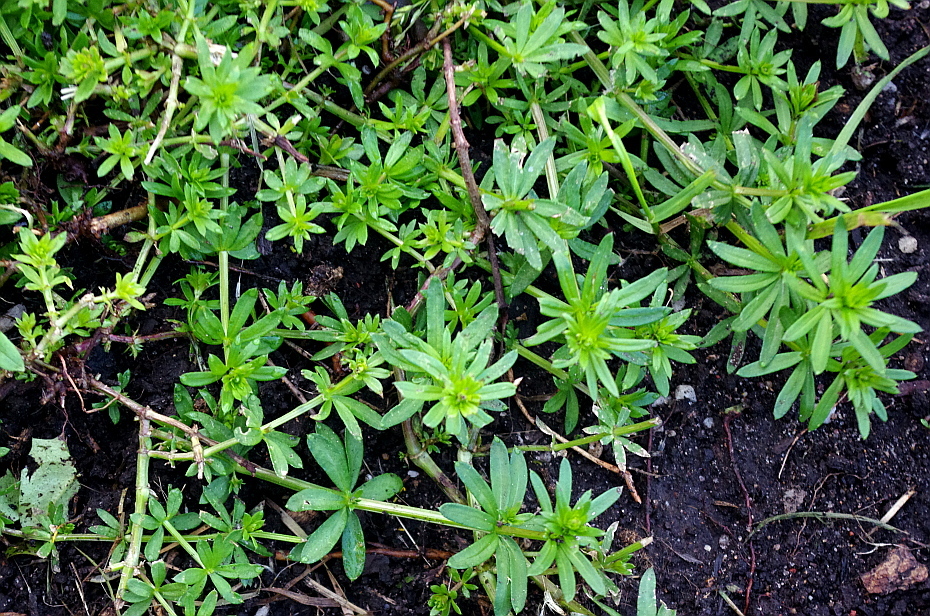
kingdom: Plantae
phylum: Tracheophyta
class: Magnoliopsida
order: Gentianales
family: Rubiaceae
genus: Galium
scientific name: Galium mollugo
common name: Hedge bedstraw
